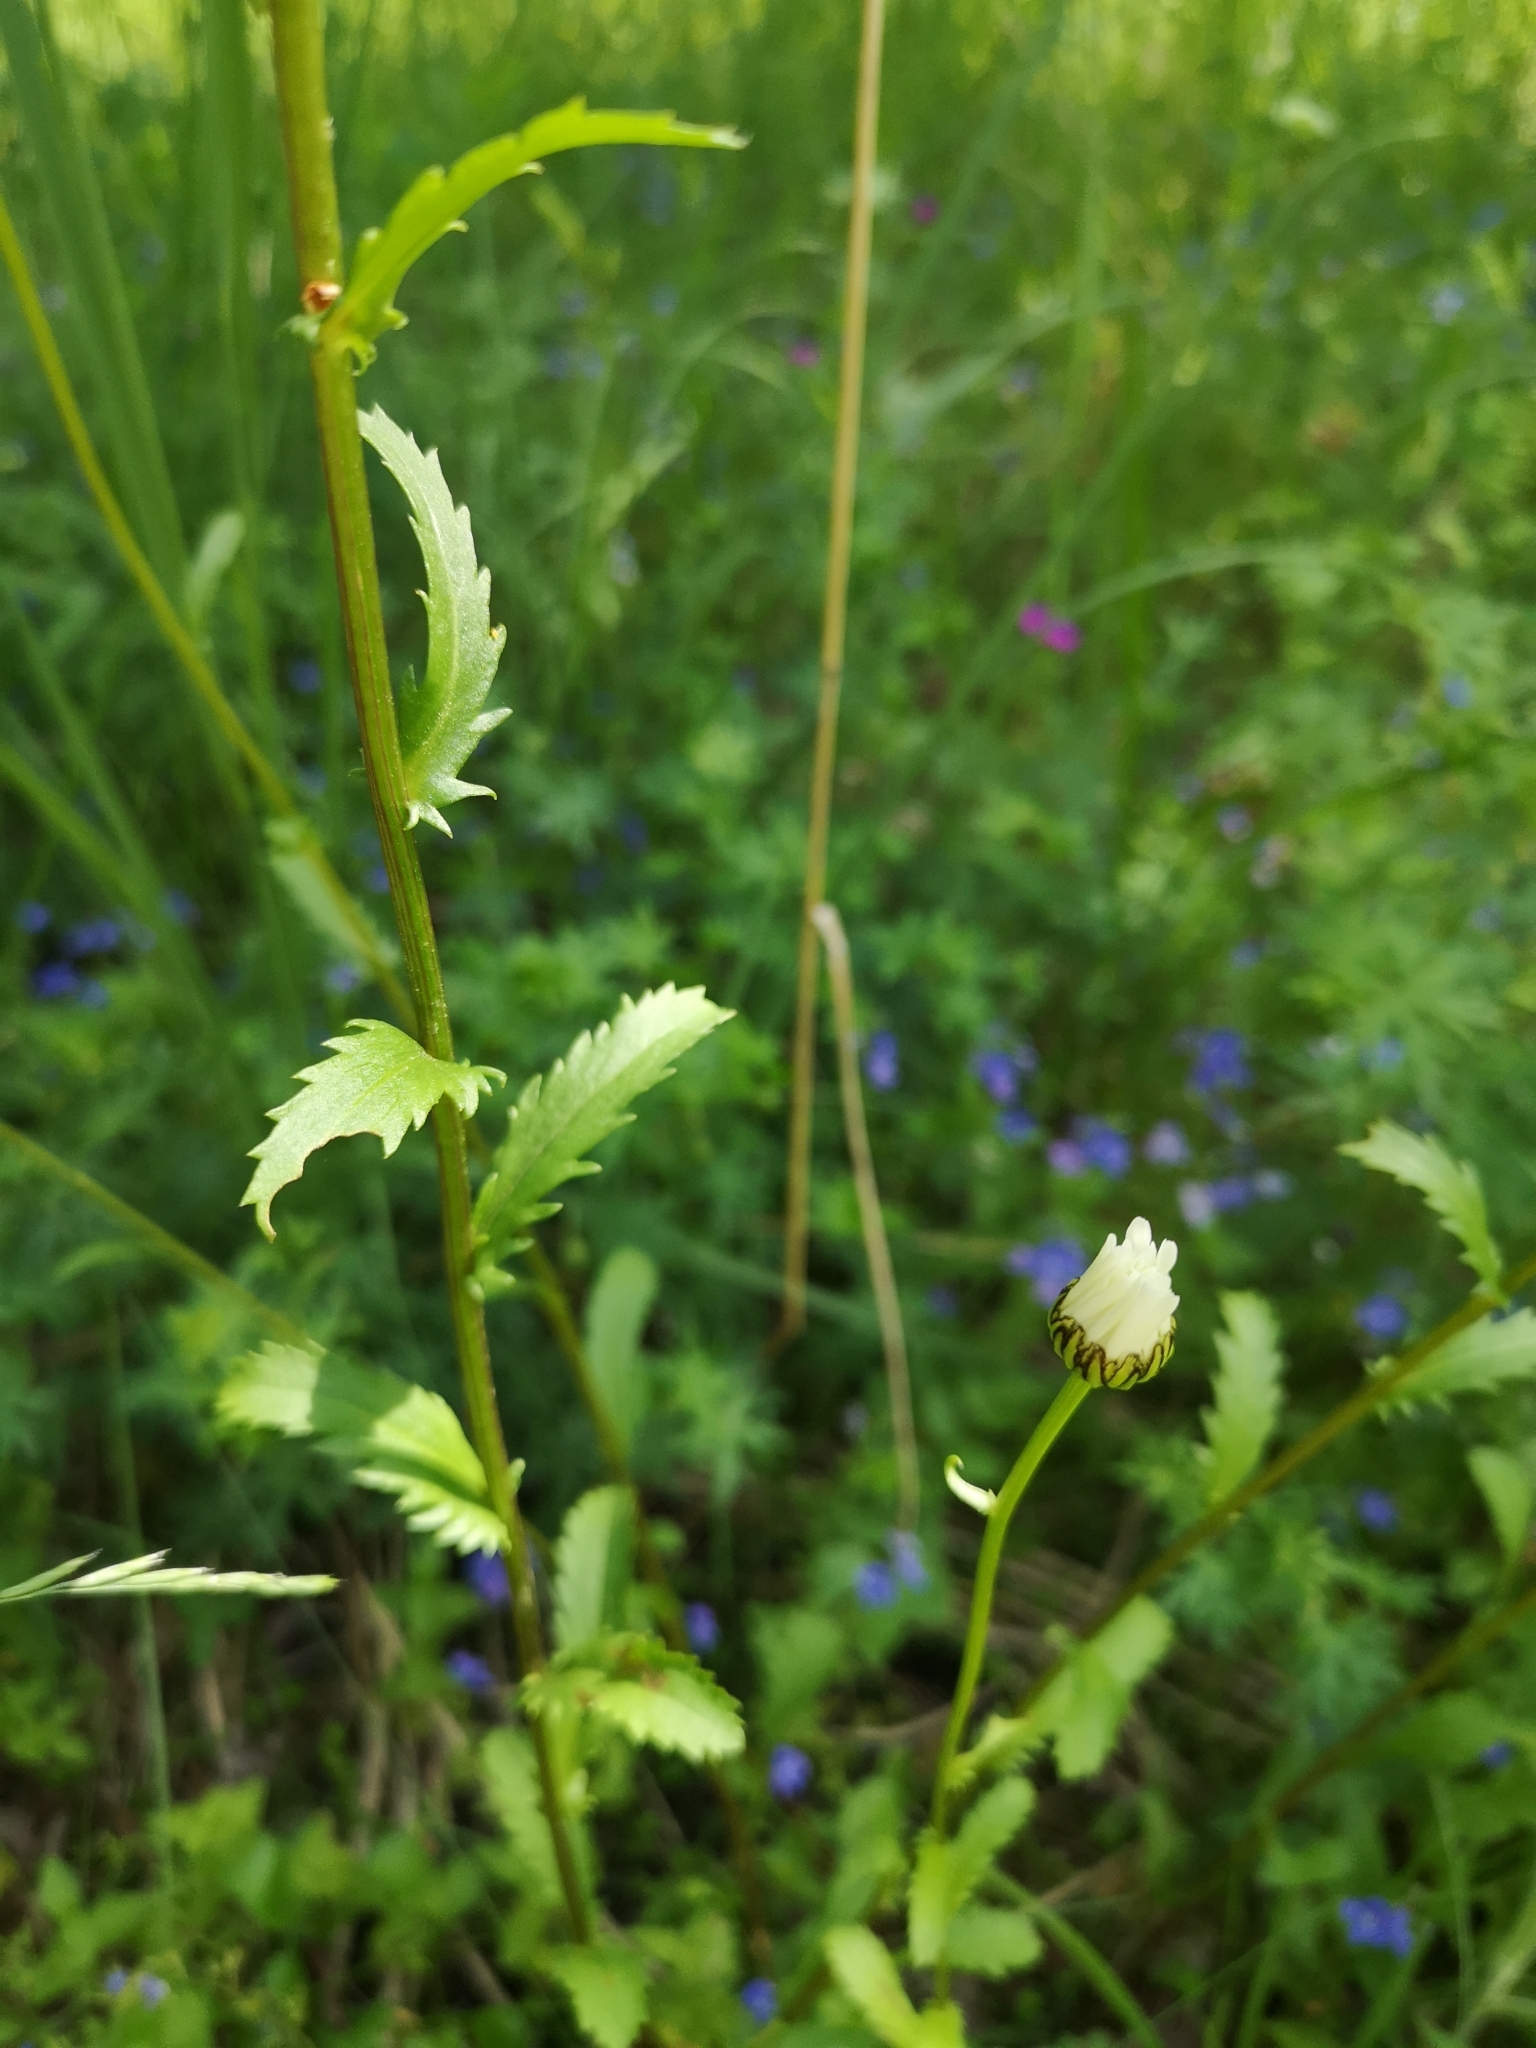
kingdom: Plantae
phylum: Tracheophyta
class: Magnoliopsida
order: Asterales
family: Asteraceae
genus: Leucanthemum
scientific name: Leucanthemum vulgare
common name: Oxeye daisy
